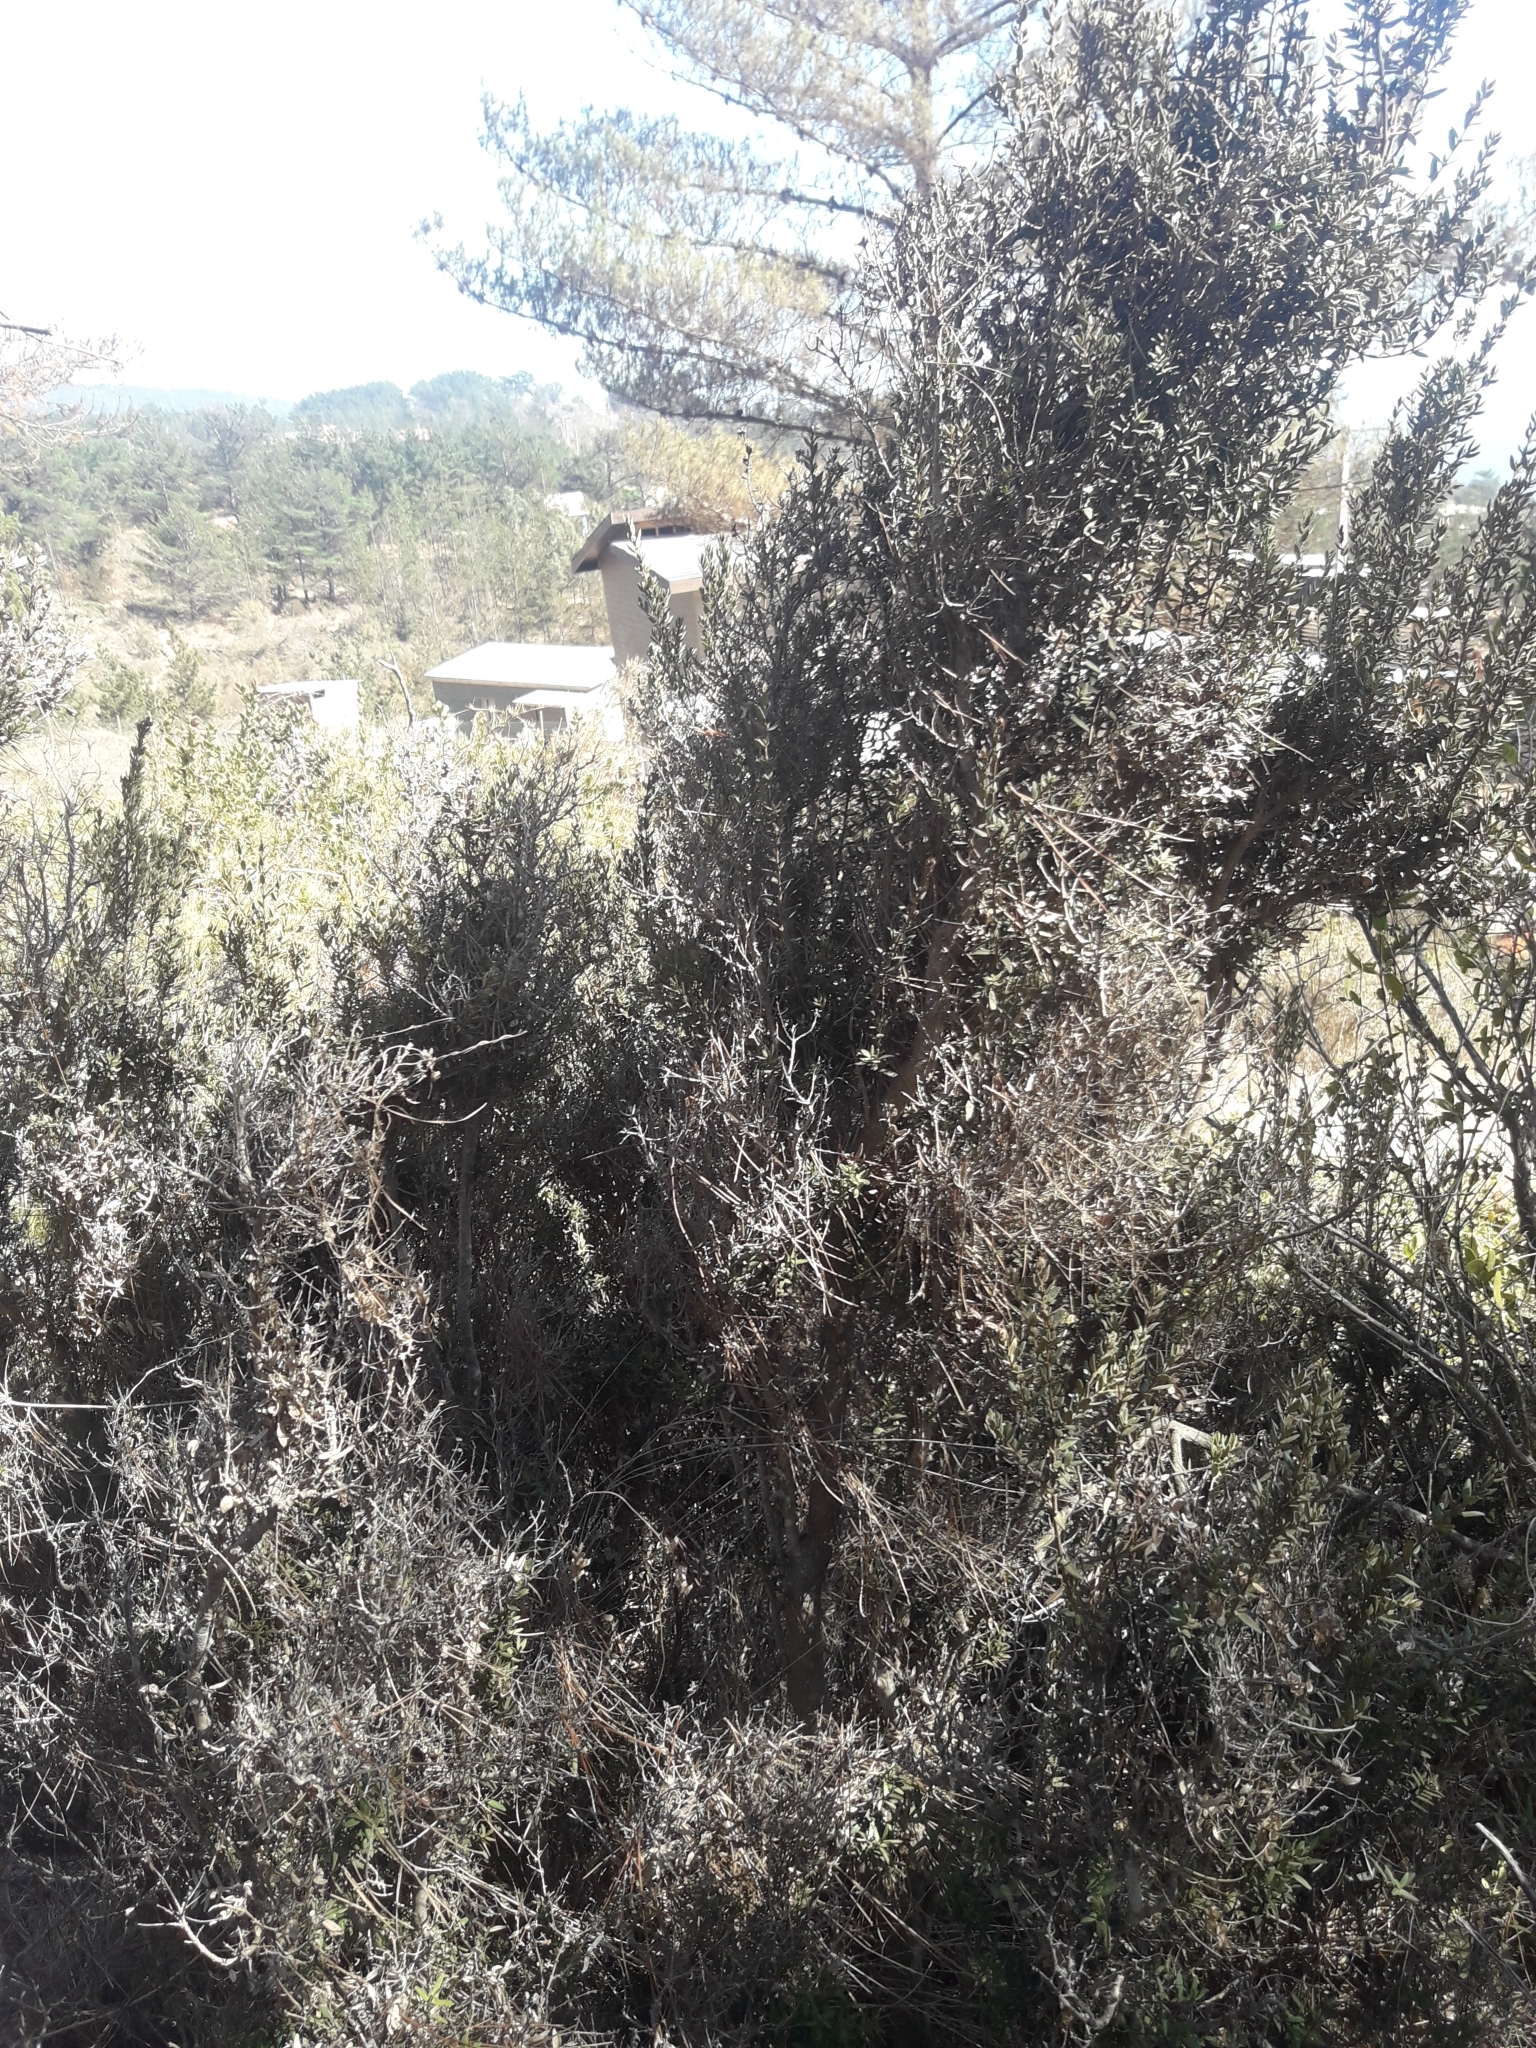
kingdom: Plantae
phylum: Tracheophyta
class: Magnoliopsida
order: Myrtales
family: Myrtaceae
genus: Myrceugenia
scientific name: Myrceugenia rufa
